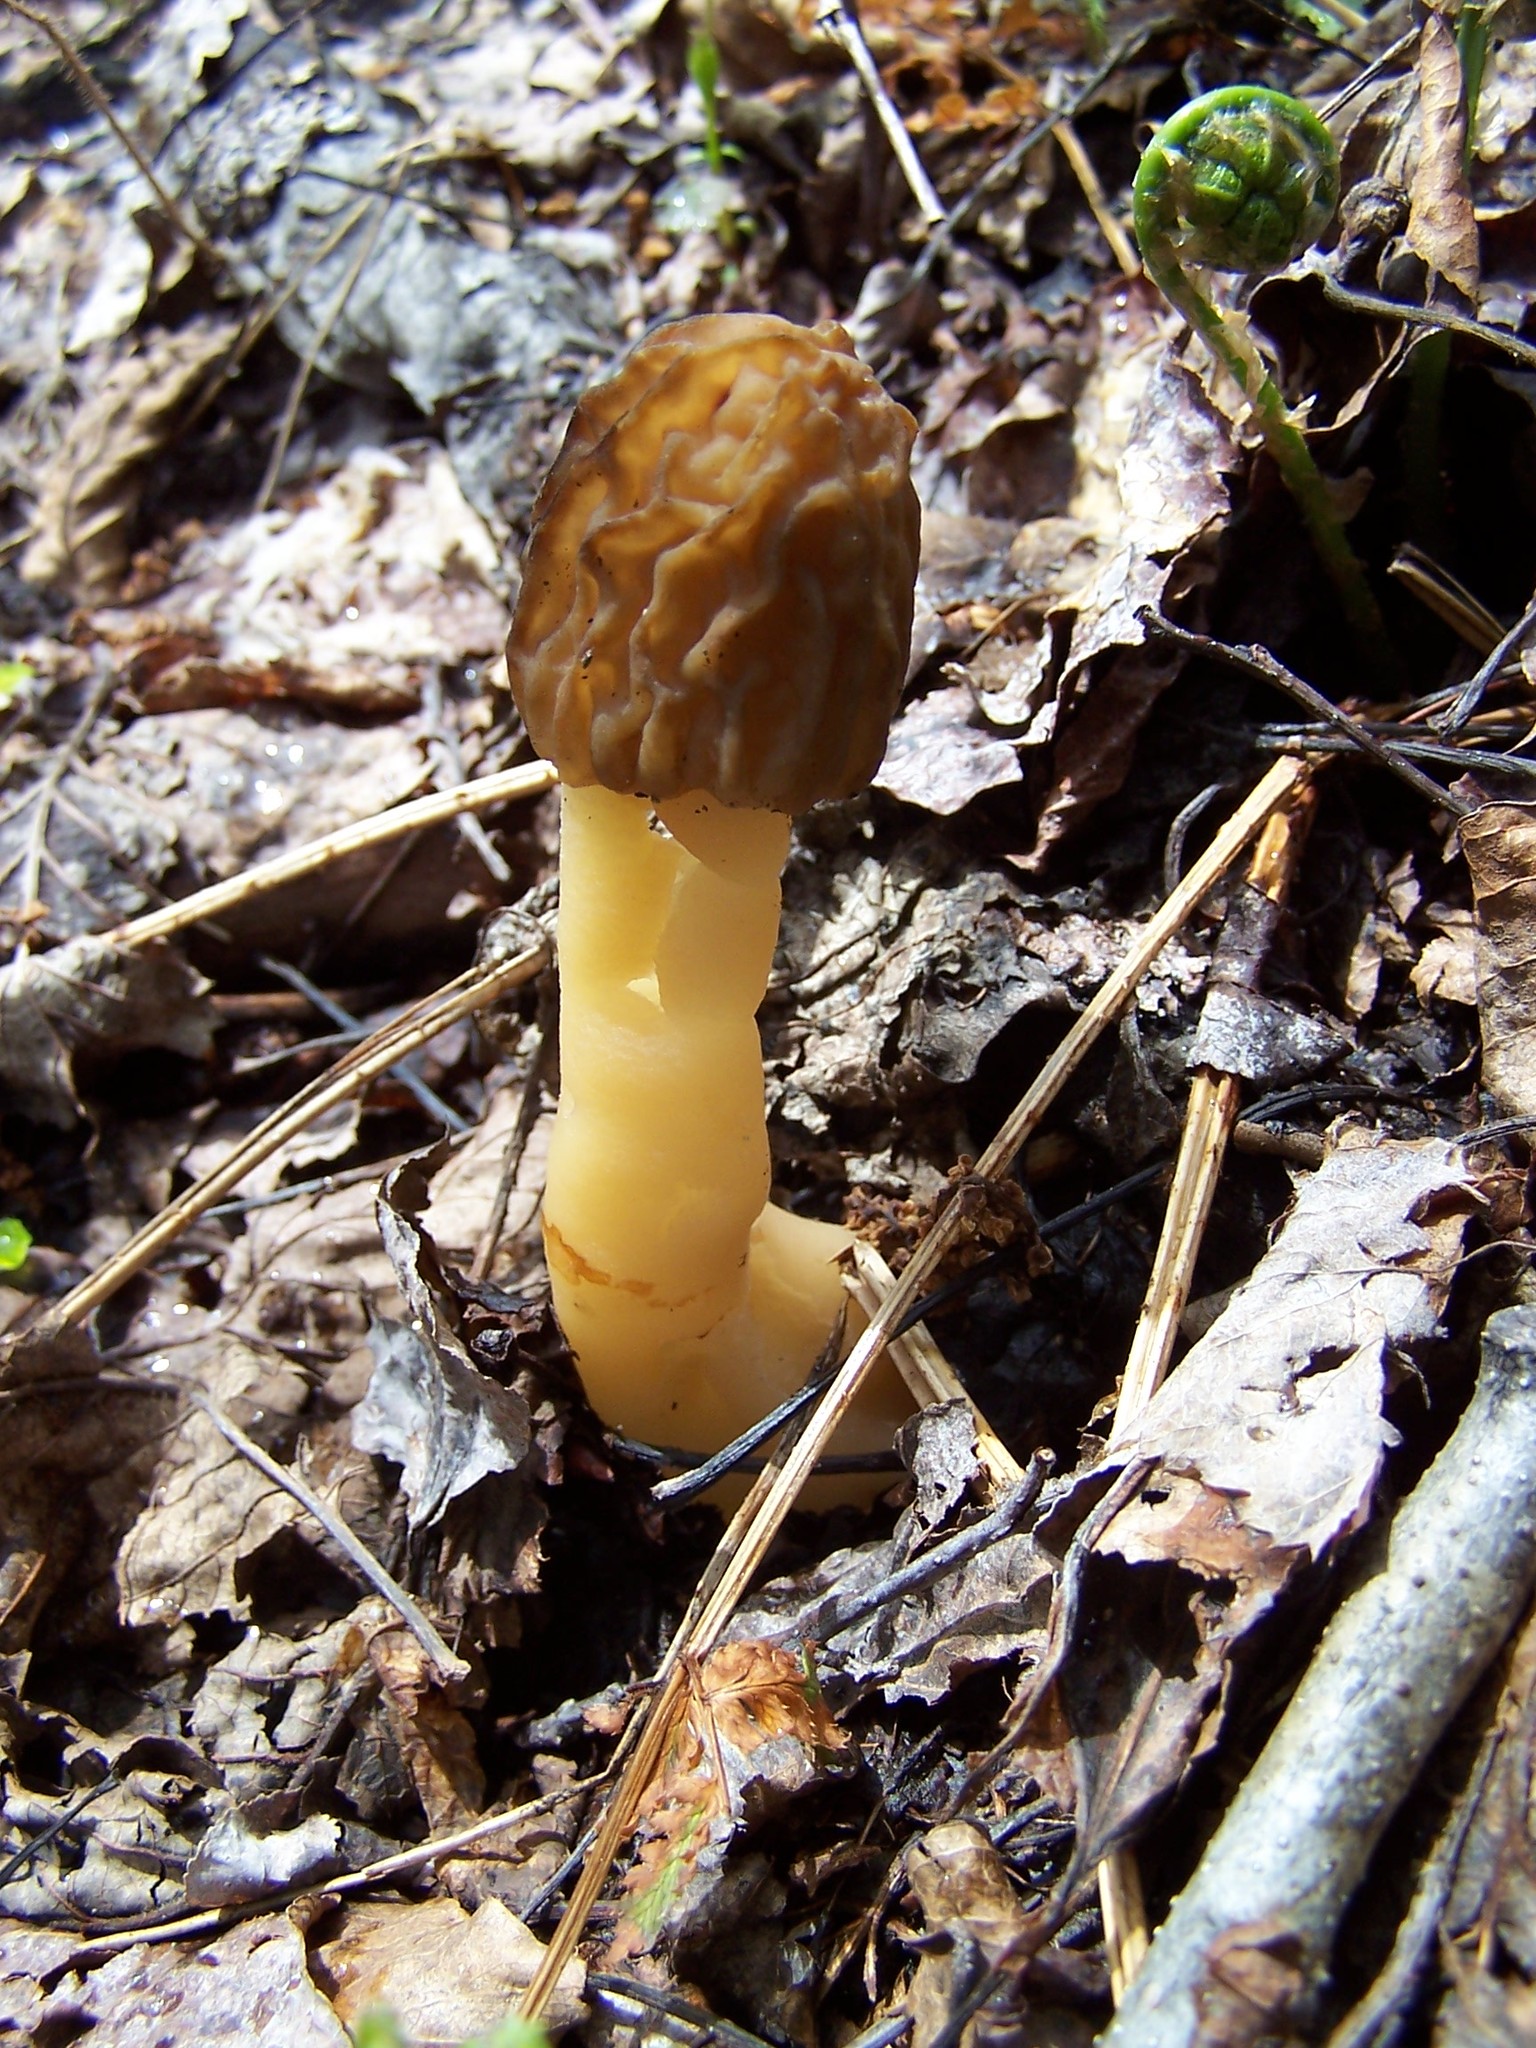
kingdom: Fungi
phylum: Ascomycota
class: Pezizomycetes
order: Pezizales
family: Morchellaceae
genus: Morchella
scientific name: Morchella punctipes
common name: Half-free morel
